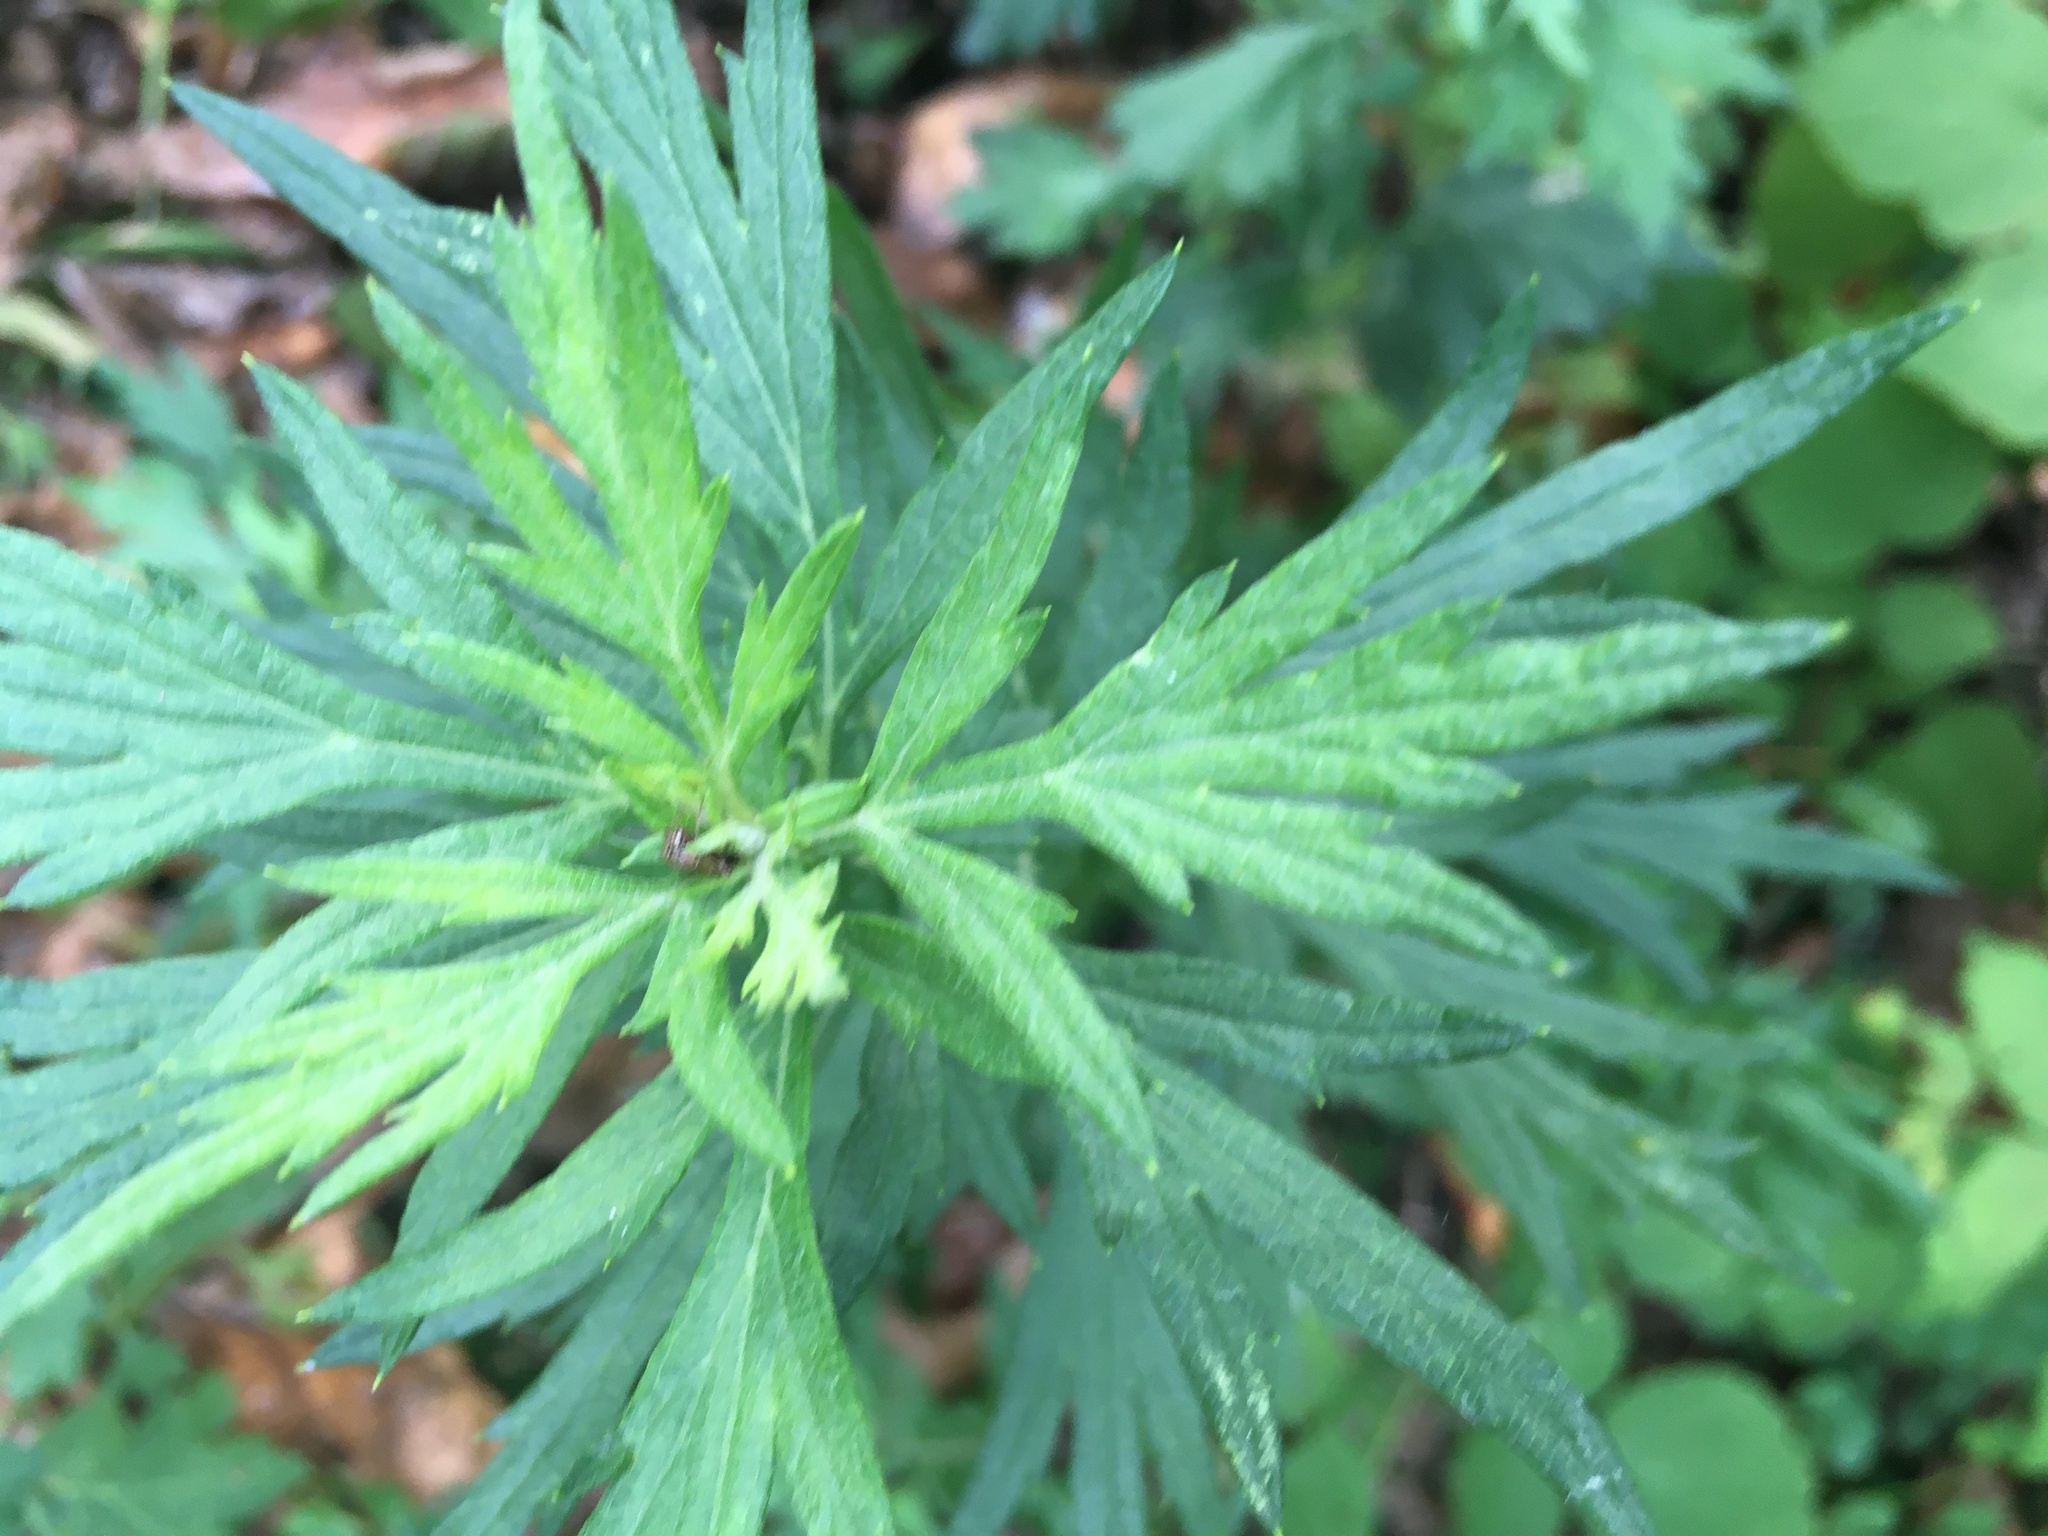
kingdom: Plantae
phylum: Tracheophyta
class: Magnoliopsida
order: Asterales
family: Asteraceae
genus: Artemisia
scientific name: Artemisia vulgaris
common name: Mugwort
